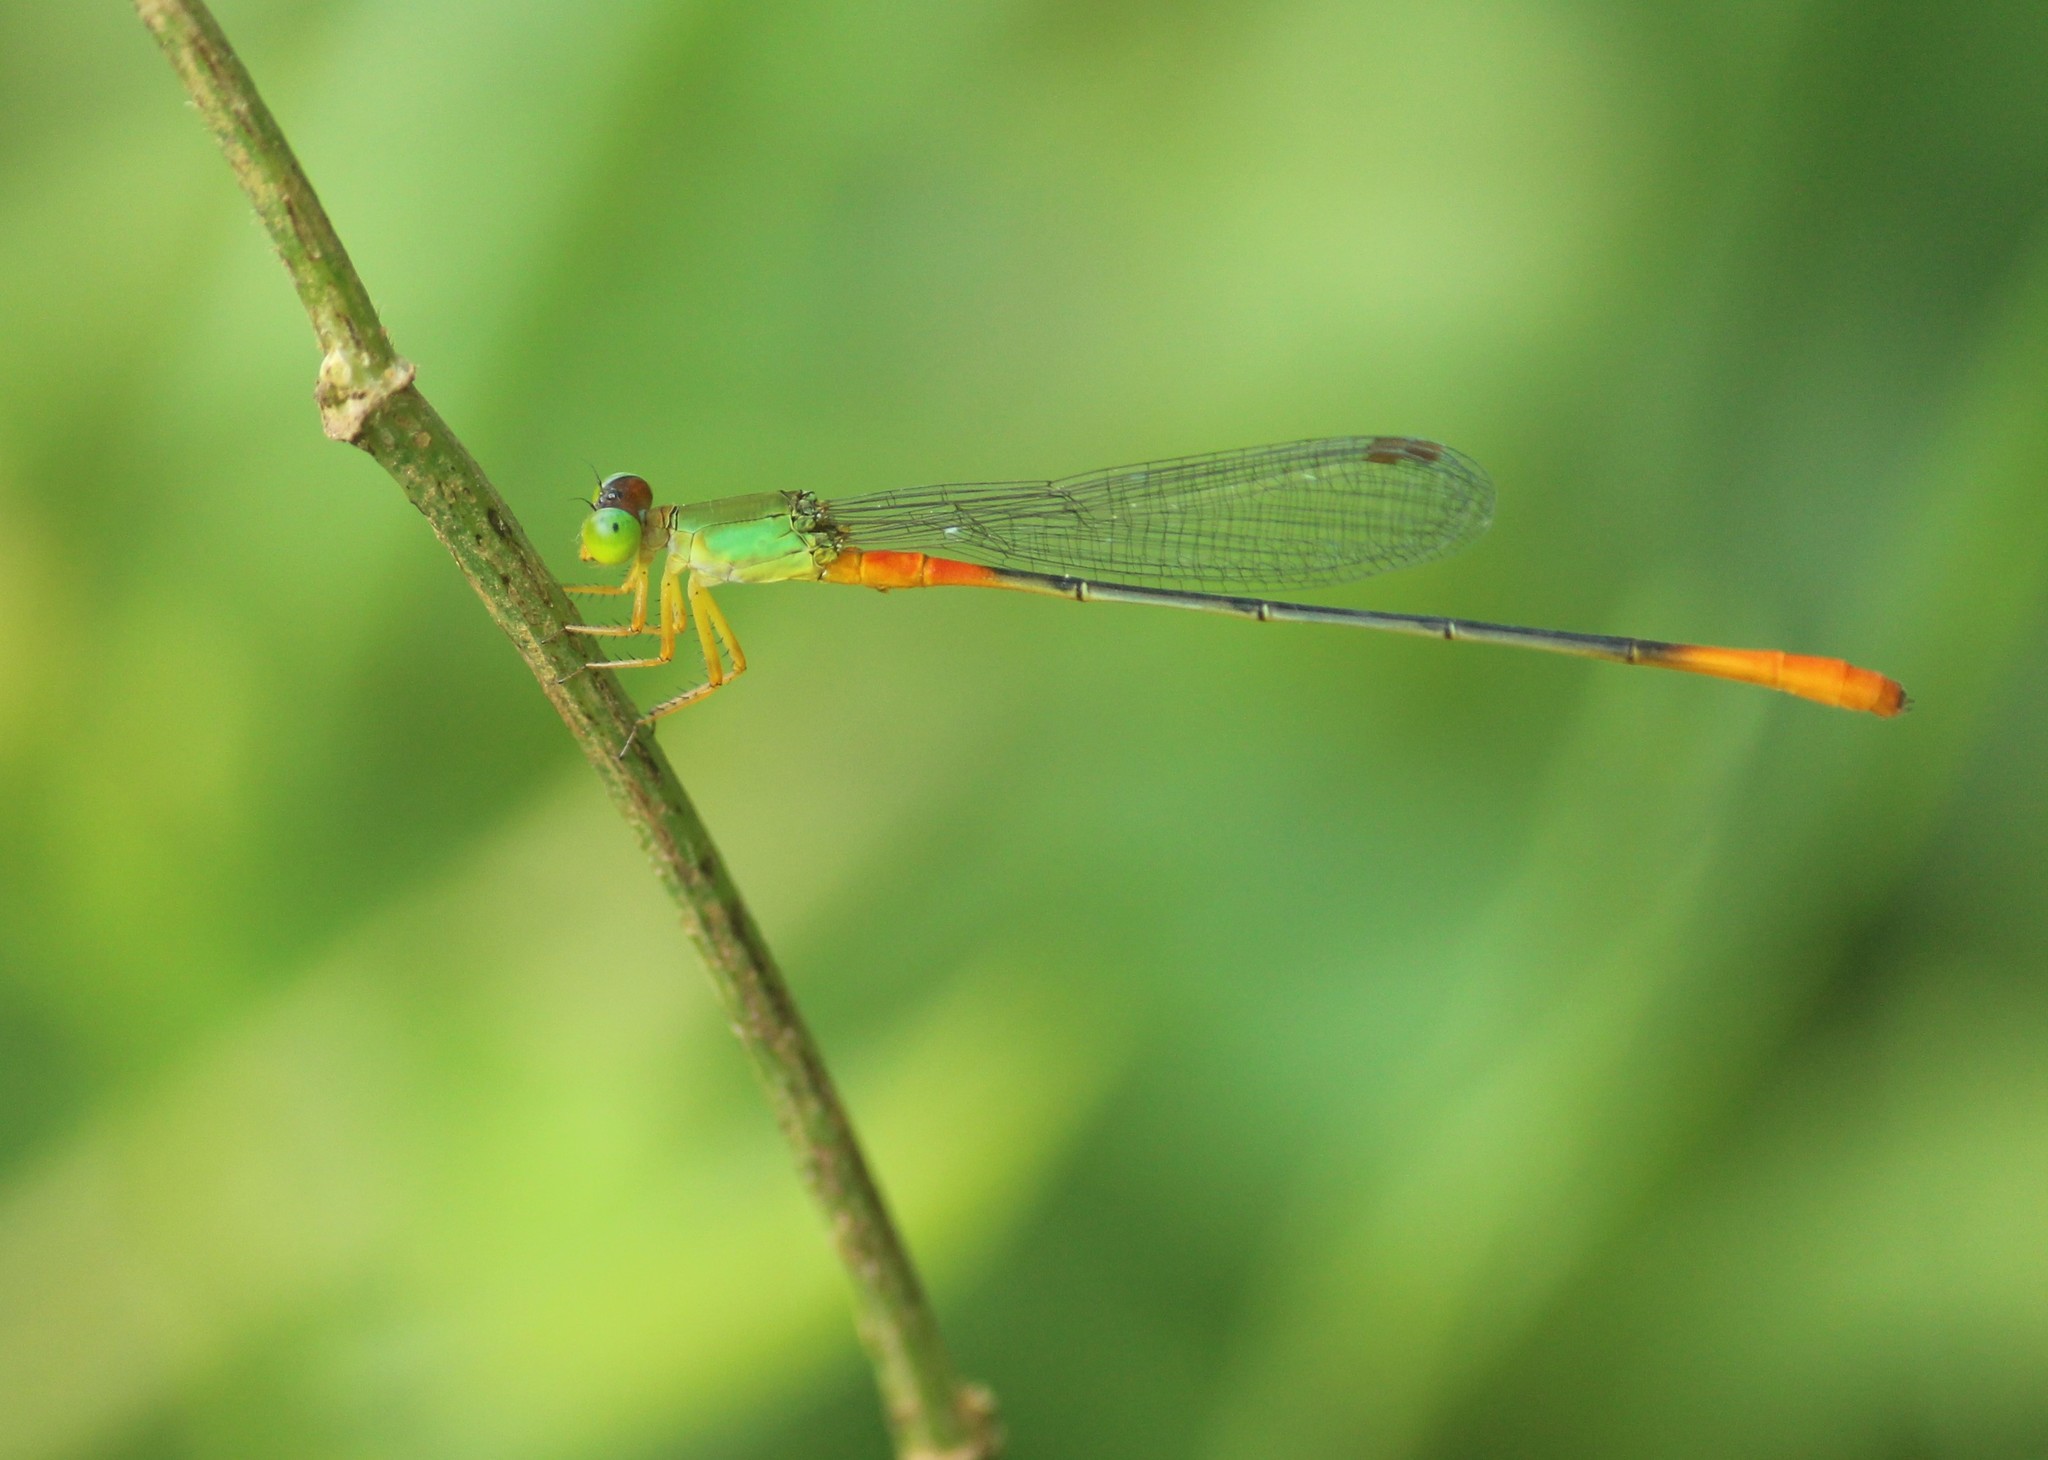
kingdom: Animalia
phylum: Arthropoda
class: Insecta
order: Odonata
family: Coenagrionidae
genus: Ceriagrion
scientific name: Ceriagrion cerinorubellum
